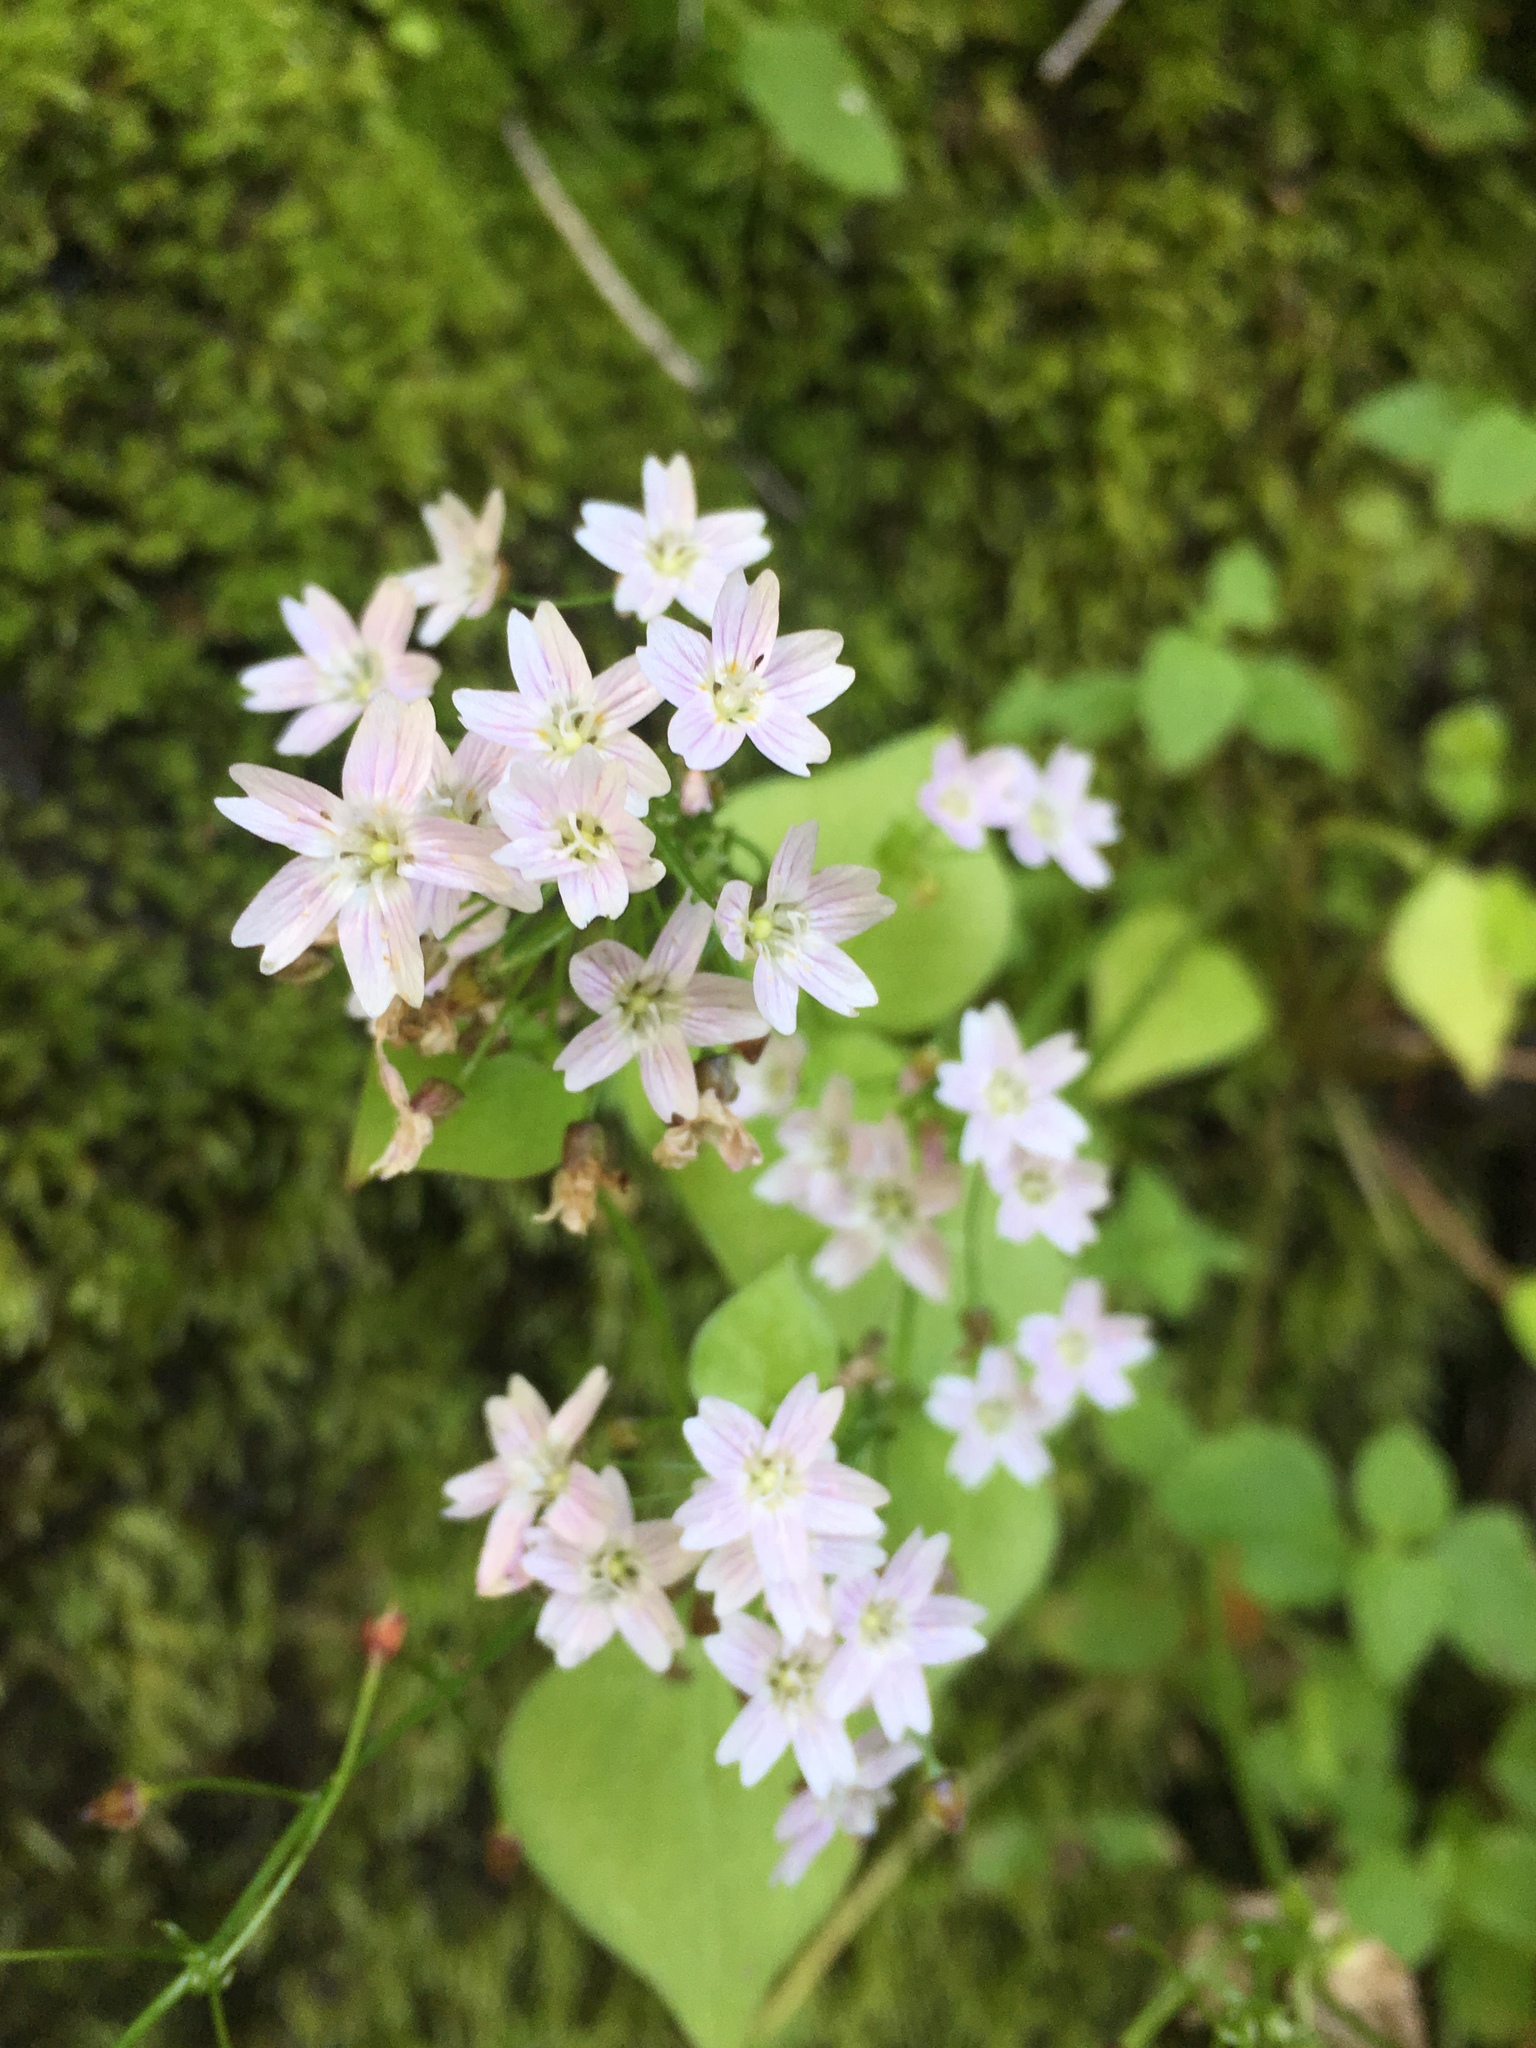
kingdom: Plantae
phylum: Tracheophyta
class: Magnoliopsida
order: Caryophyllales
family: Montiaceae
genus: Claytonia
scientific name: Claytonia sibirica
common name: Pink purslane
